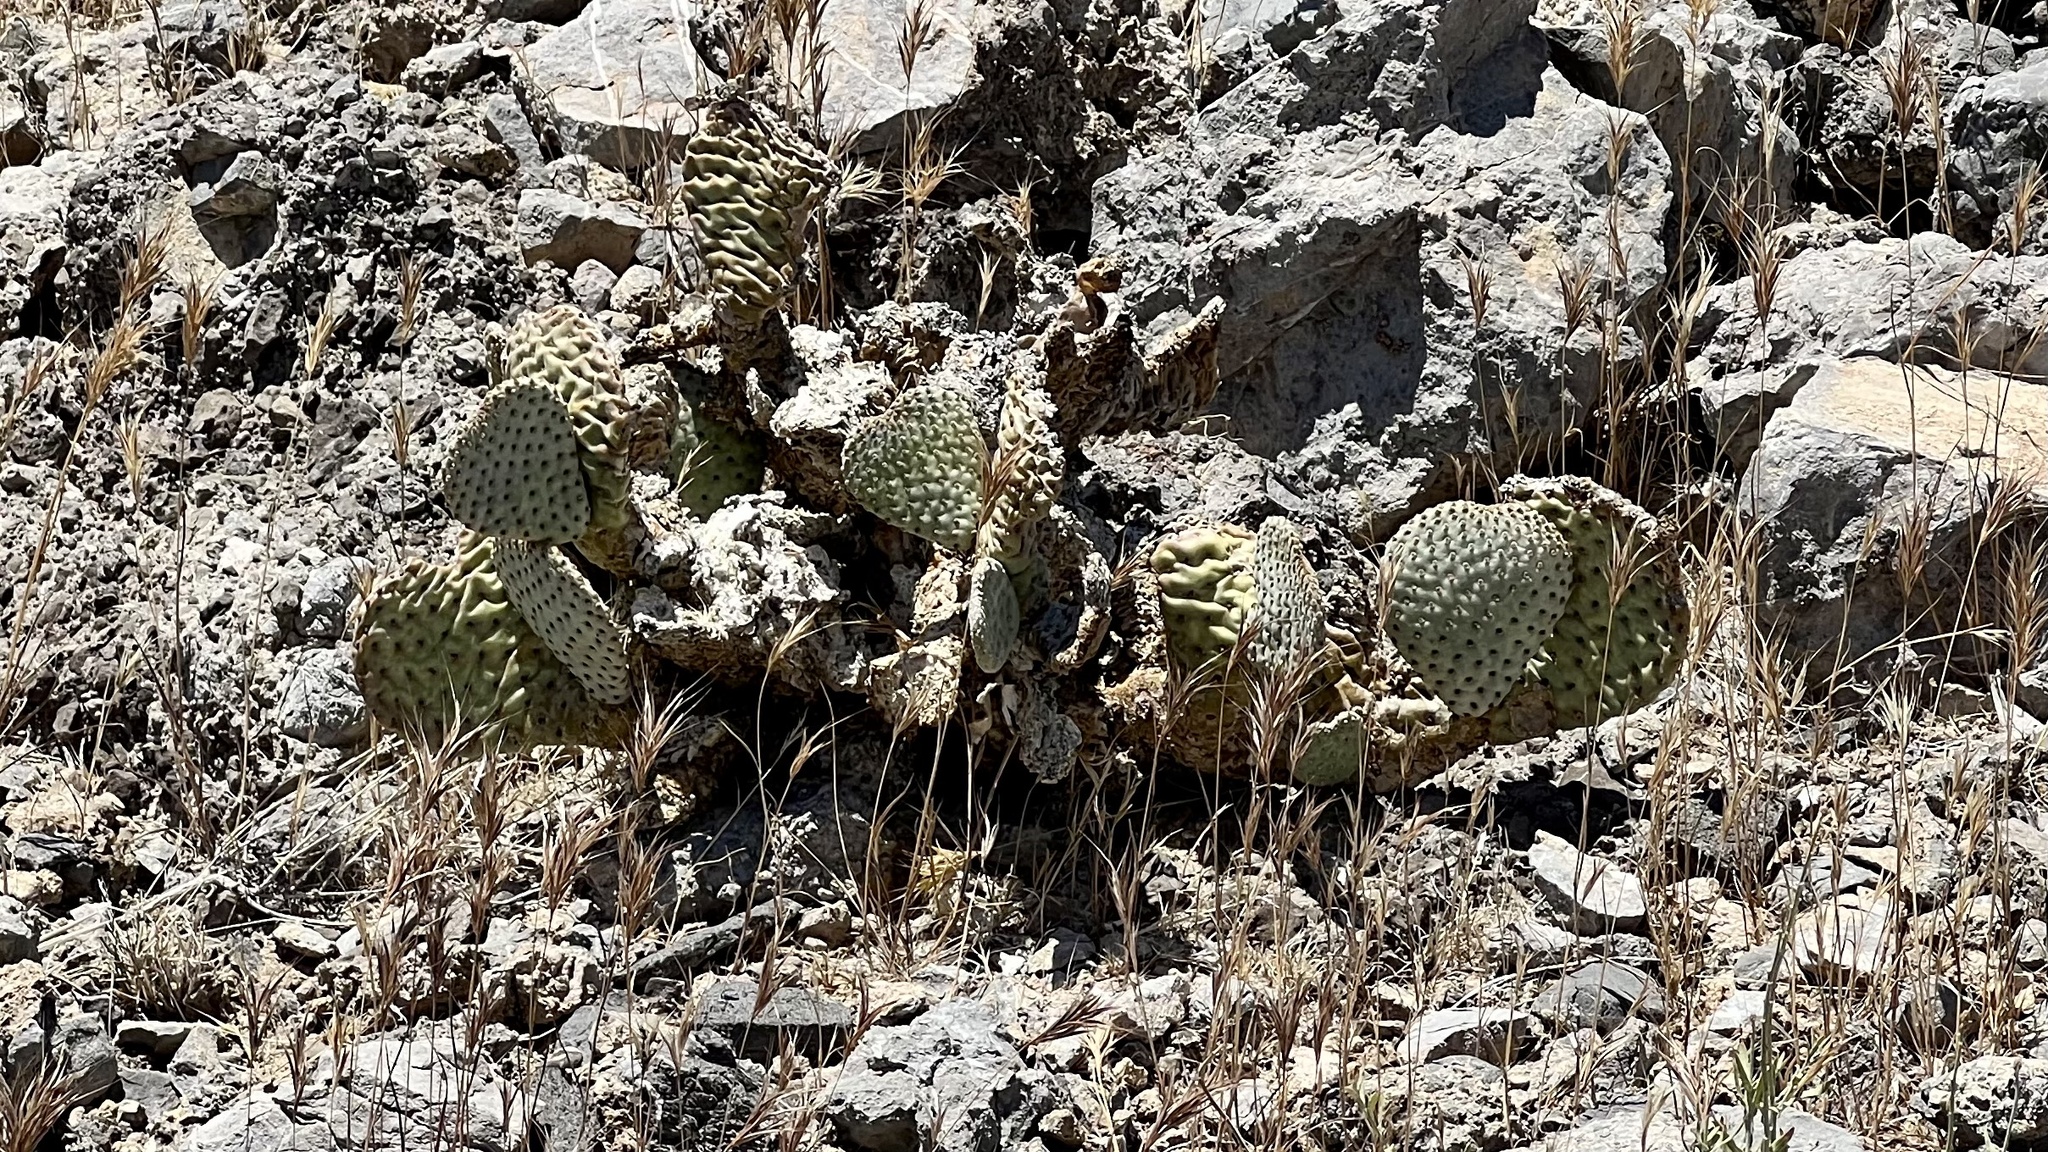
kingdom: Plantae
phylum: Tracheophyta
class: Magnoliopsida
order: Caryophyllales
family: Cactaceae
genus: Opuntia
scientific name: Opuntia basilaris
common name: Beavertail prickly-pear
